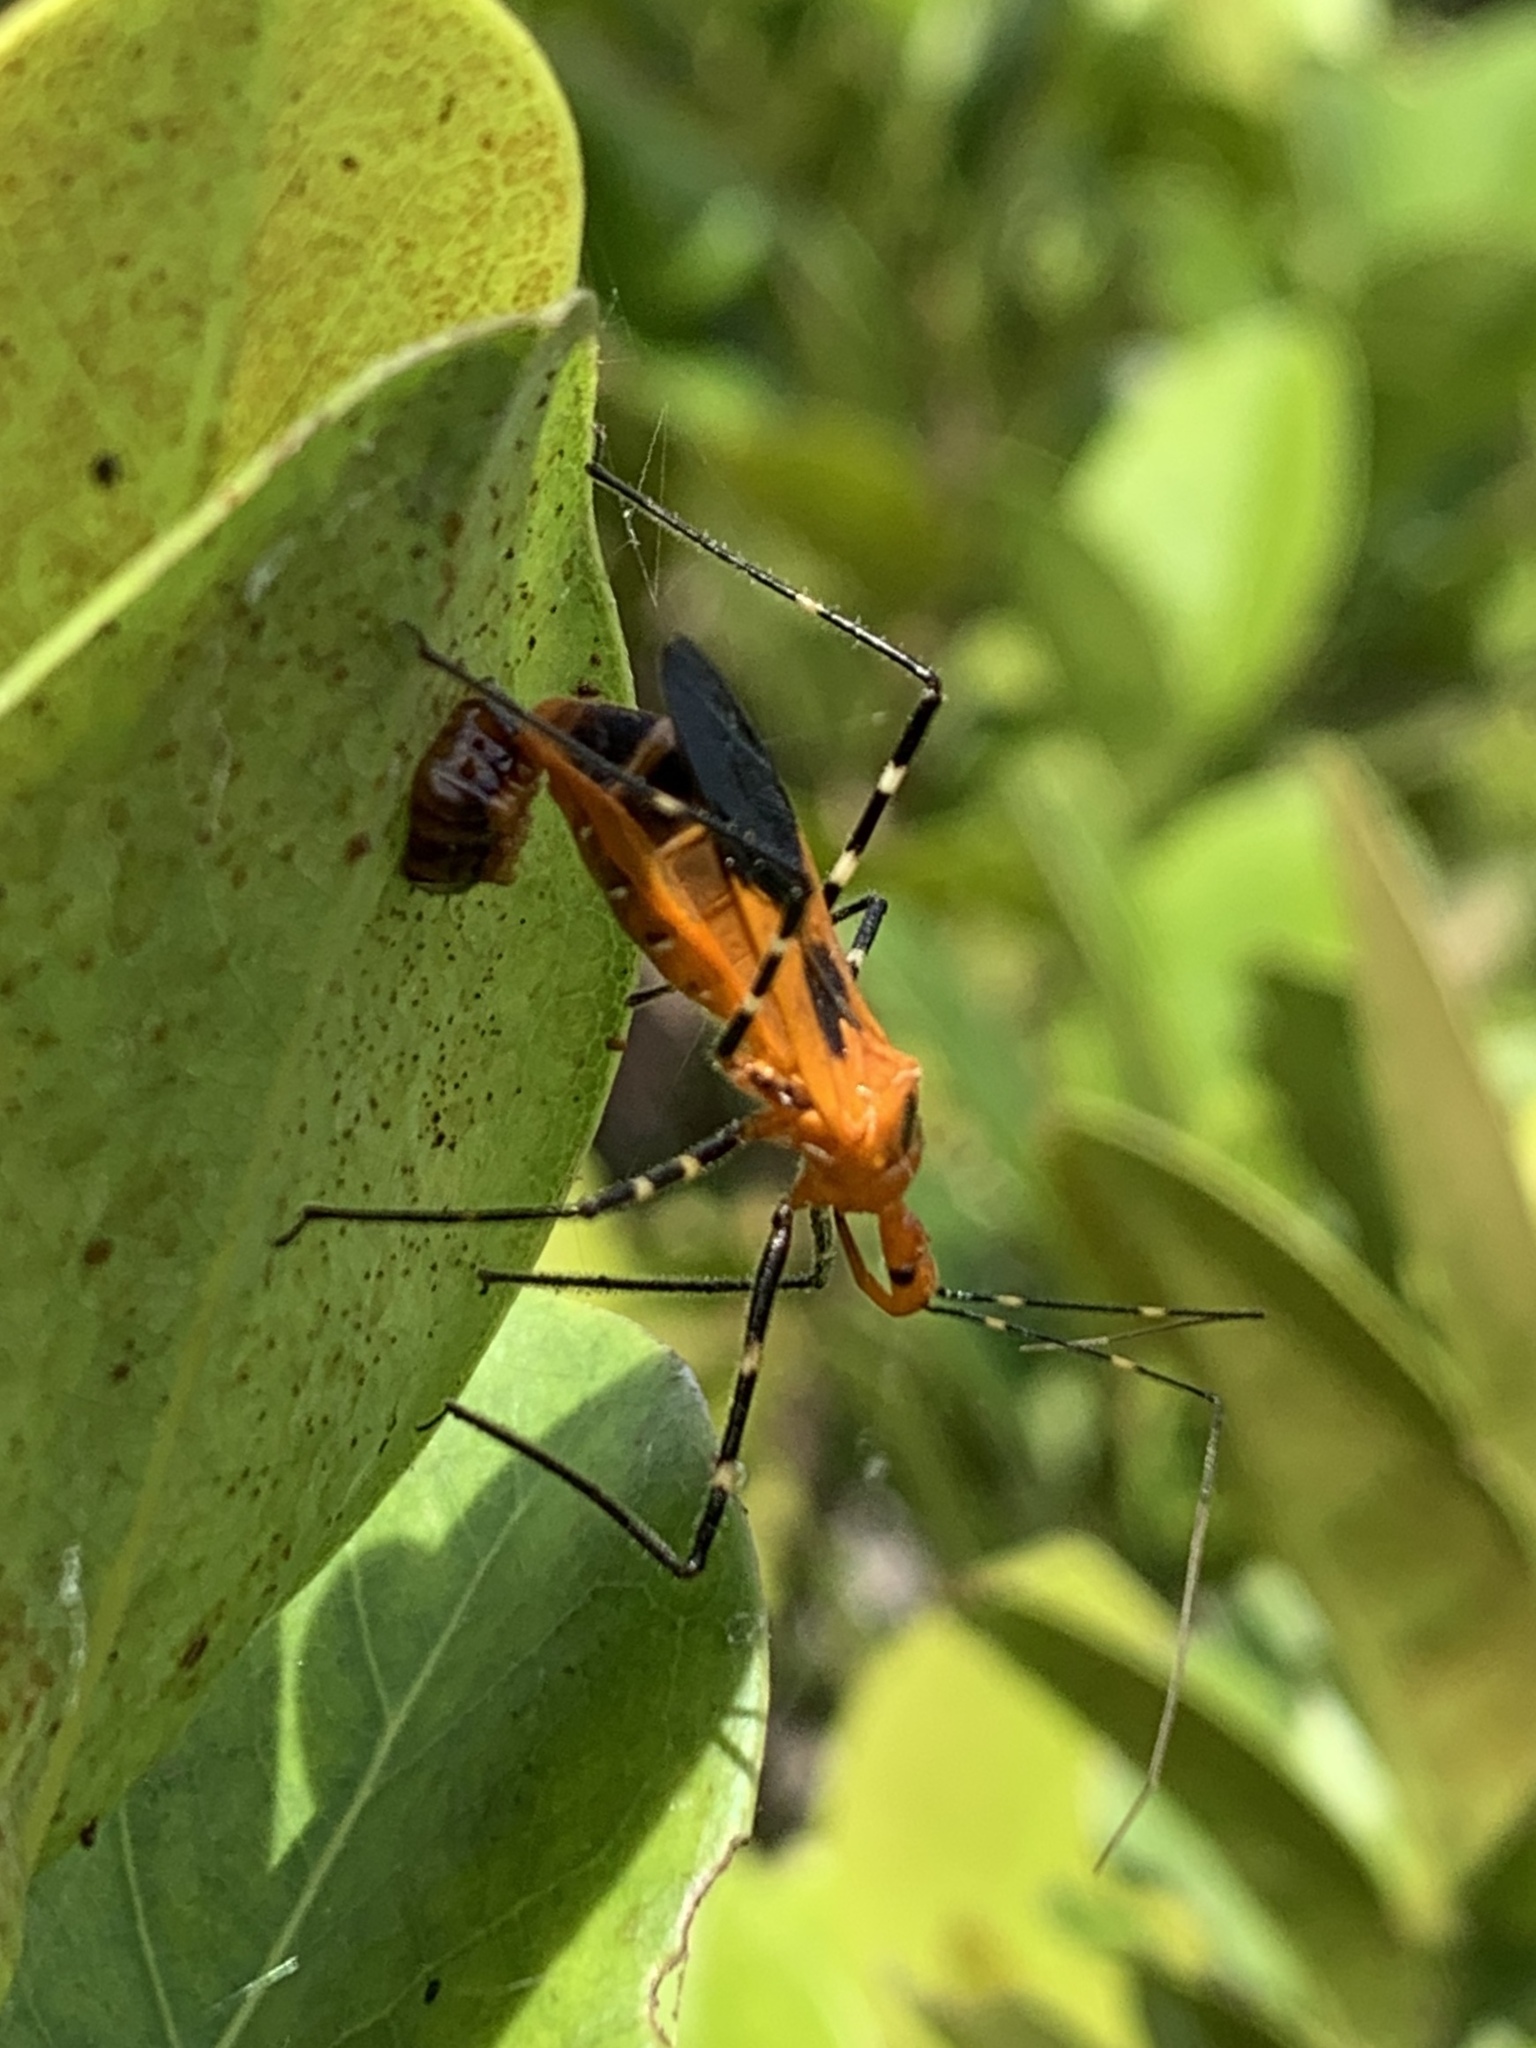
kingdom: Animalia
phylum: Arthropoda
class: Insecta
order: Hemiptera
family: Reduviidae
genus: Zelus
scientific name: Zelus longipes
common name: Milkweed assassin bug
